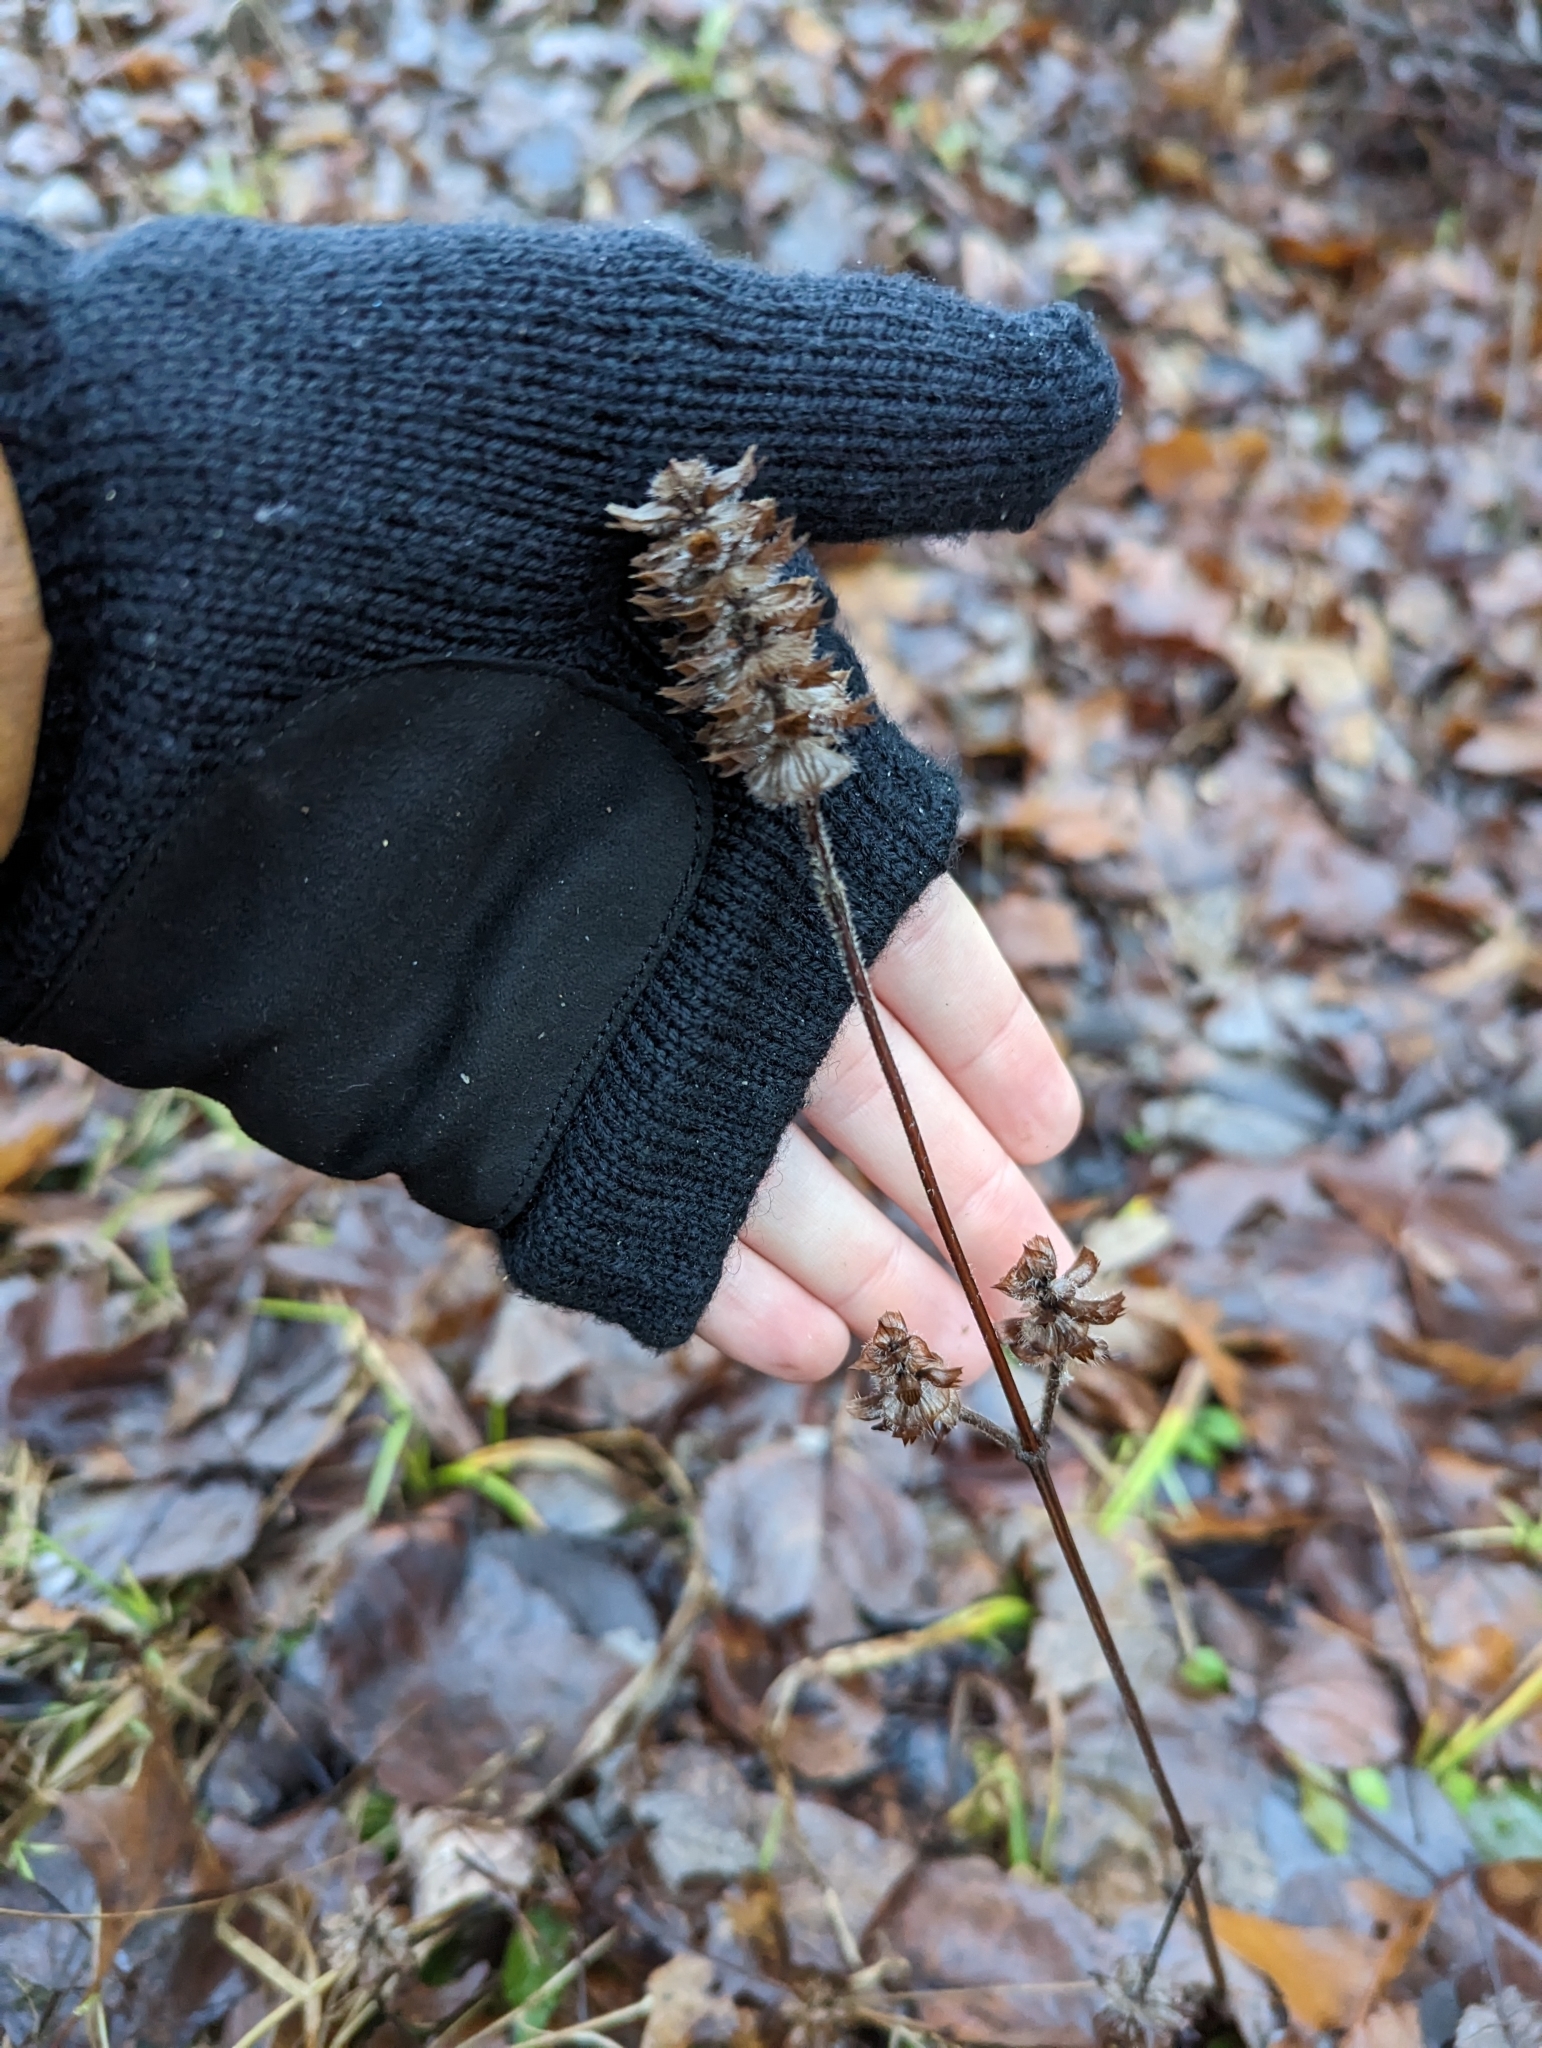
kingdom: Plantae
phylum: Tracheophyta
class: Magnoliopsida
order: Lamiales
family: Lamiaceae
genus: Prunella
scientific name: Prunella vulgaris
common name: Heal-all
